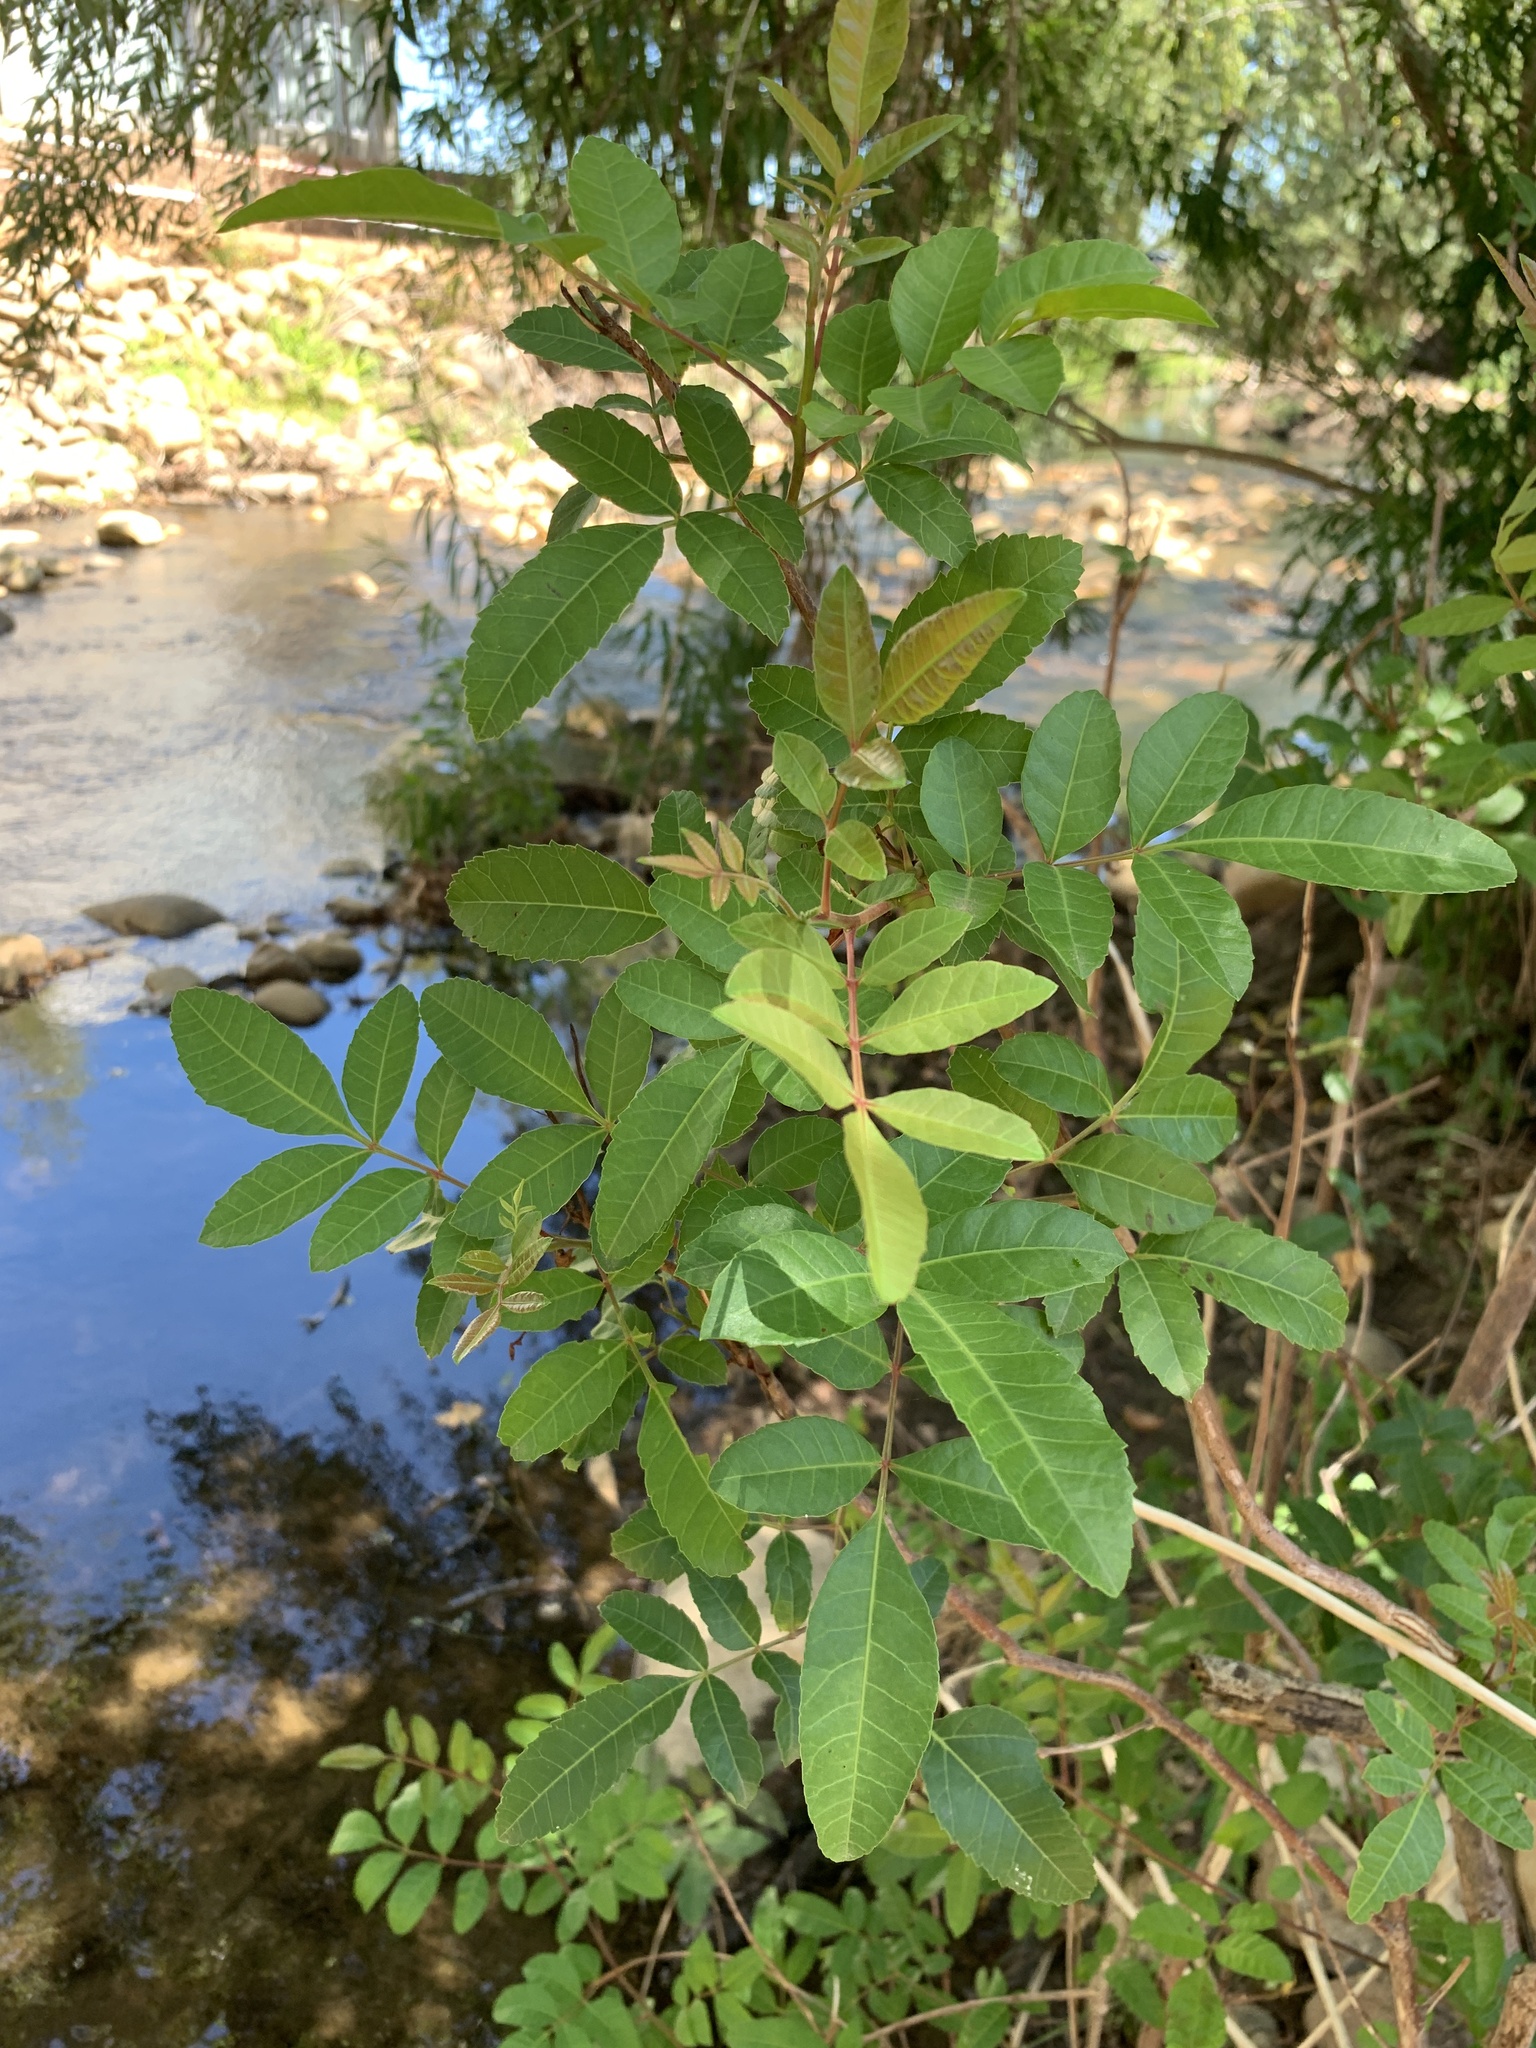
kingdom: Plantae
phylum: Tracheophyta
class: Magnoliopsida
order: Sapindales
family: Anacardiaceae
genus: Schinus
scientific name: Schinus terebinthifolia
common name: Brazilian peppertree
